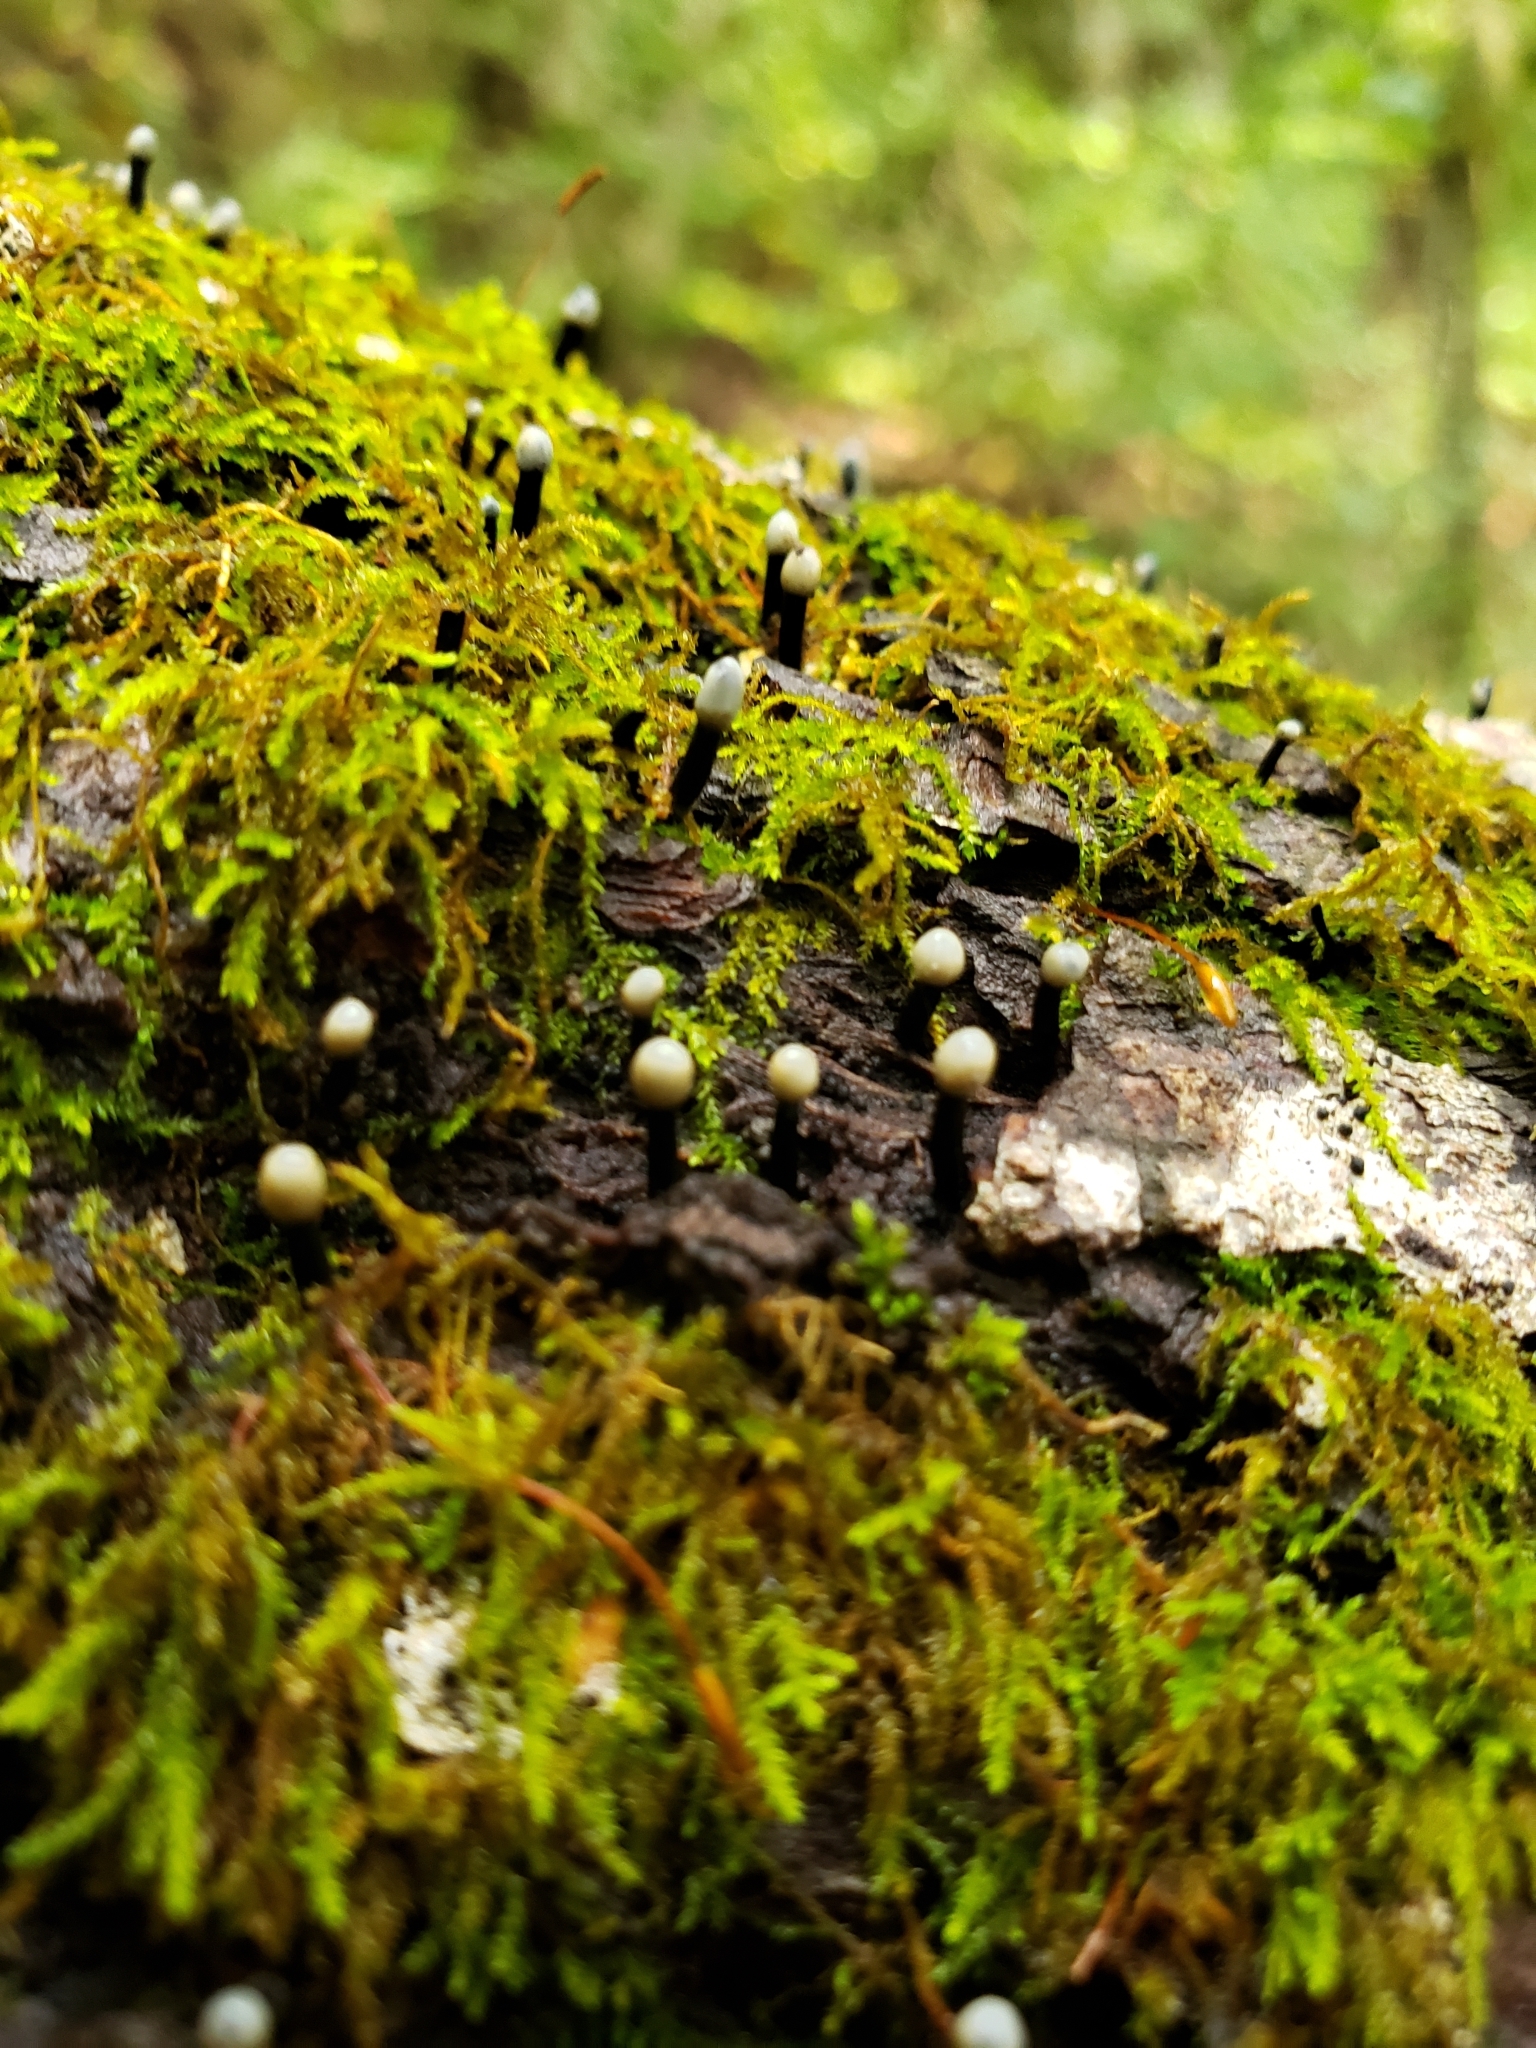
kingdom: Fungi
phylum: Ascomycota
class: Leotiomycetes
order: Helotiales
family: Bulgariaceae
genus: Holwaya
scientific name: Holwaya mucida
